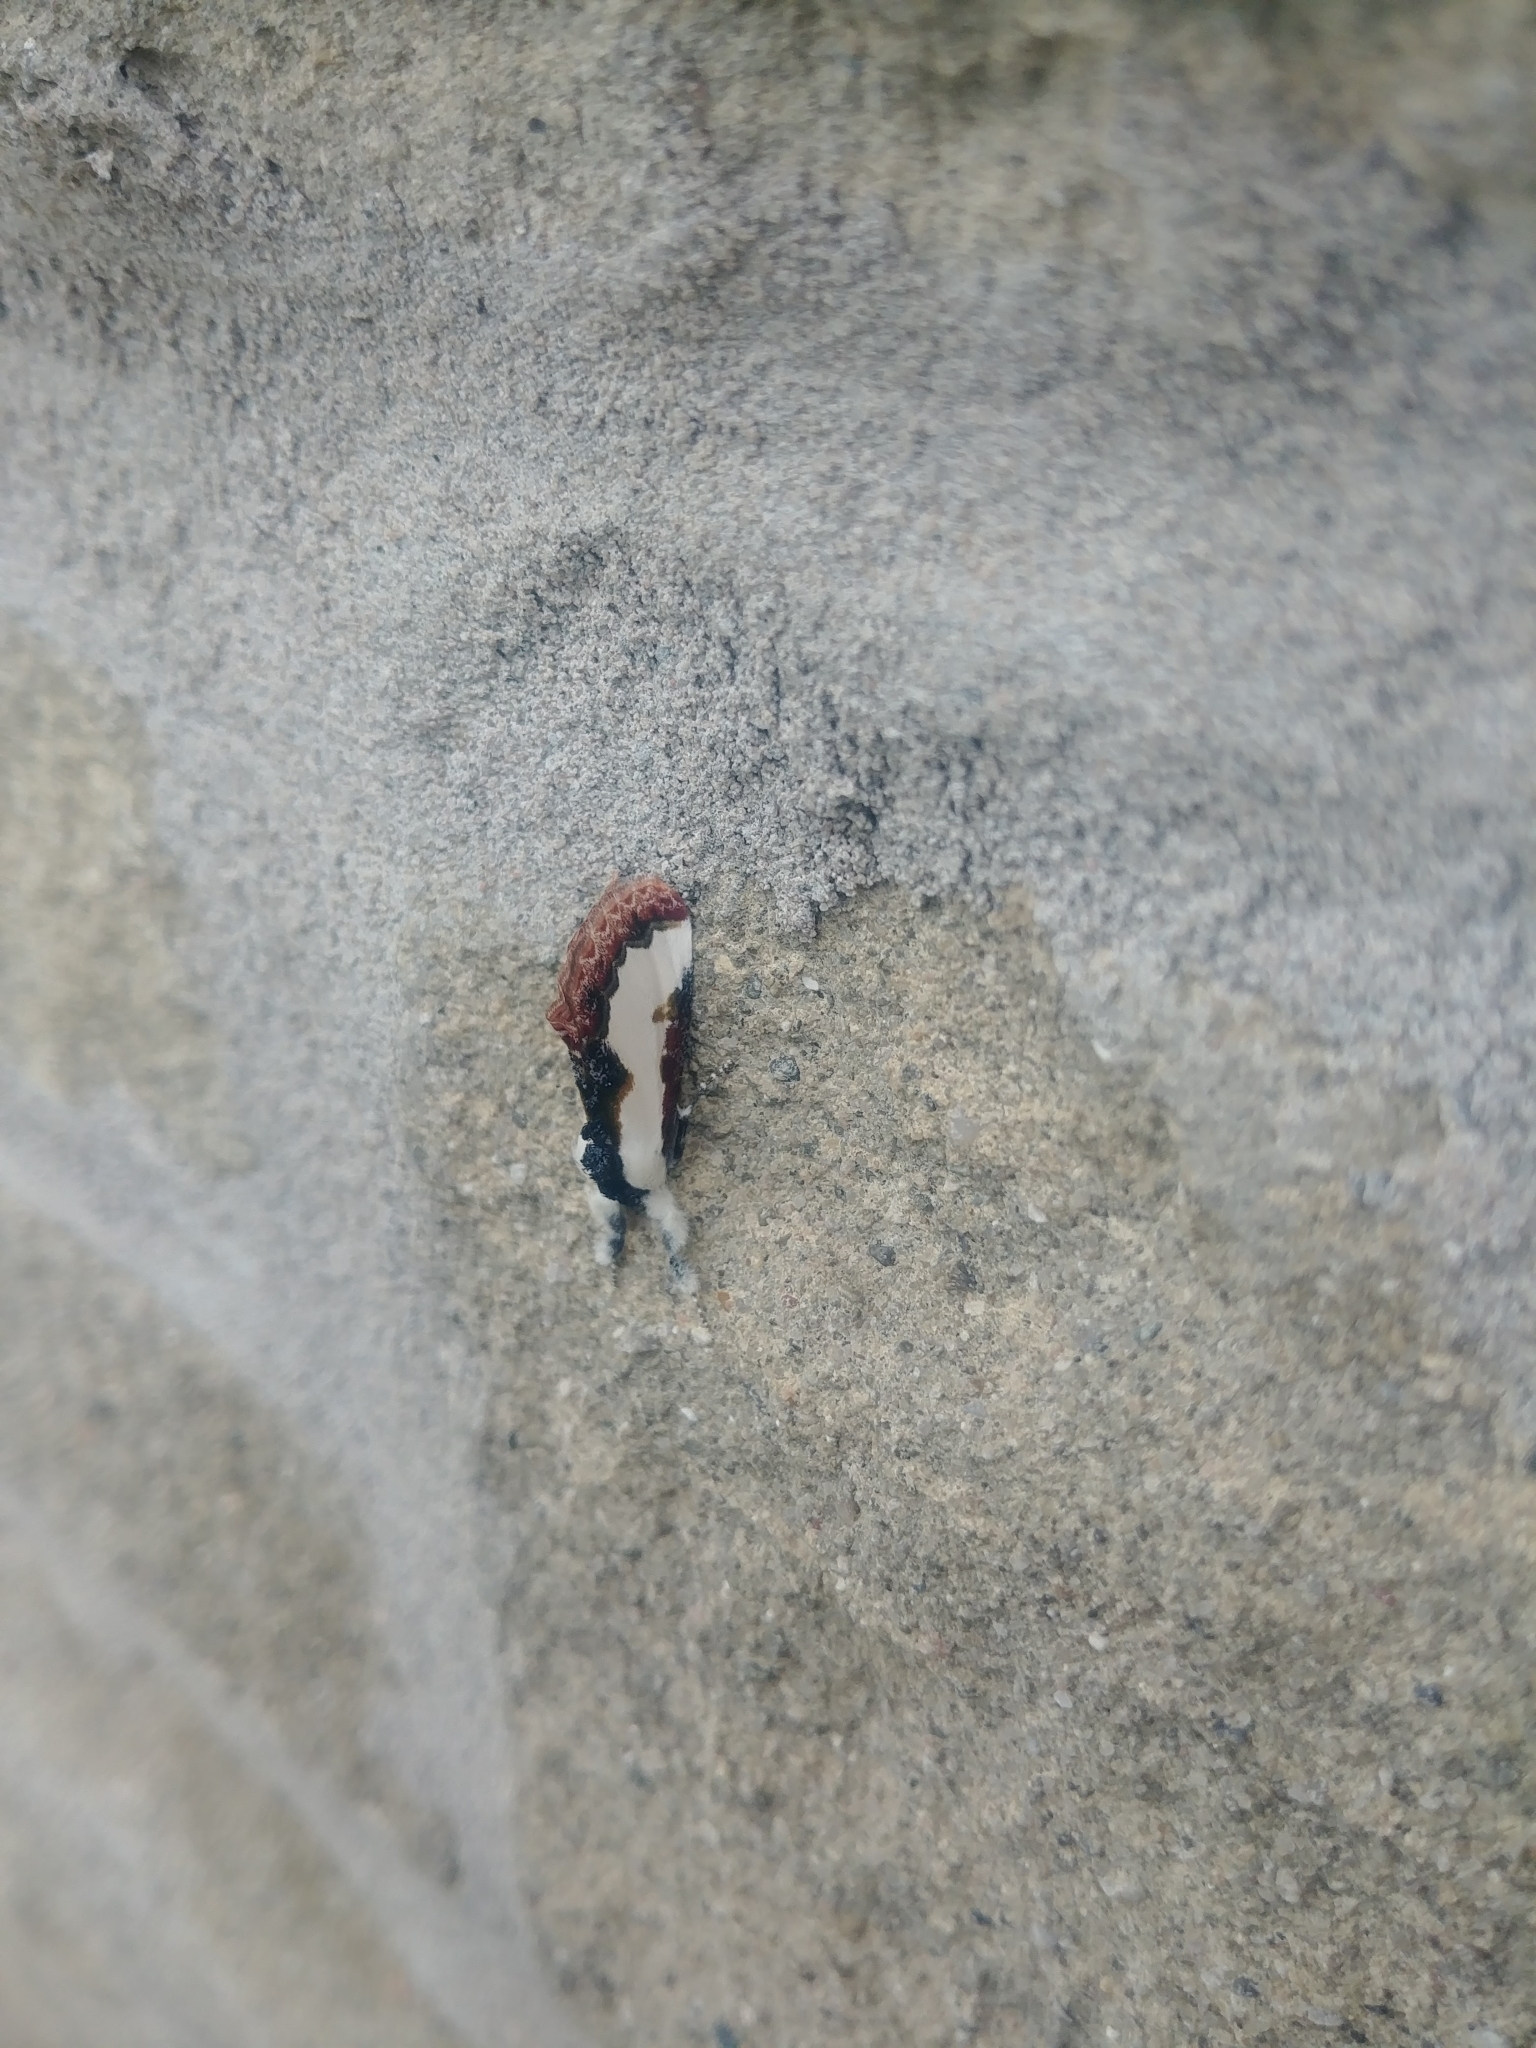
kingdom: Animalia
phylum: Arthropoda
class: Insecta
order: Lepidoptera
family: Noctuidae
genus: Eudryas
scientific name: Eudryas unio
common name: Pearly wood-nymph
